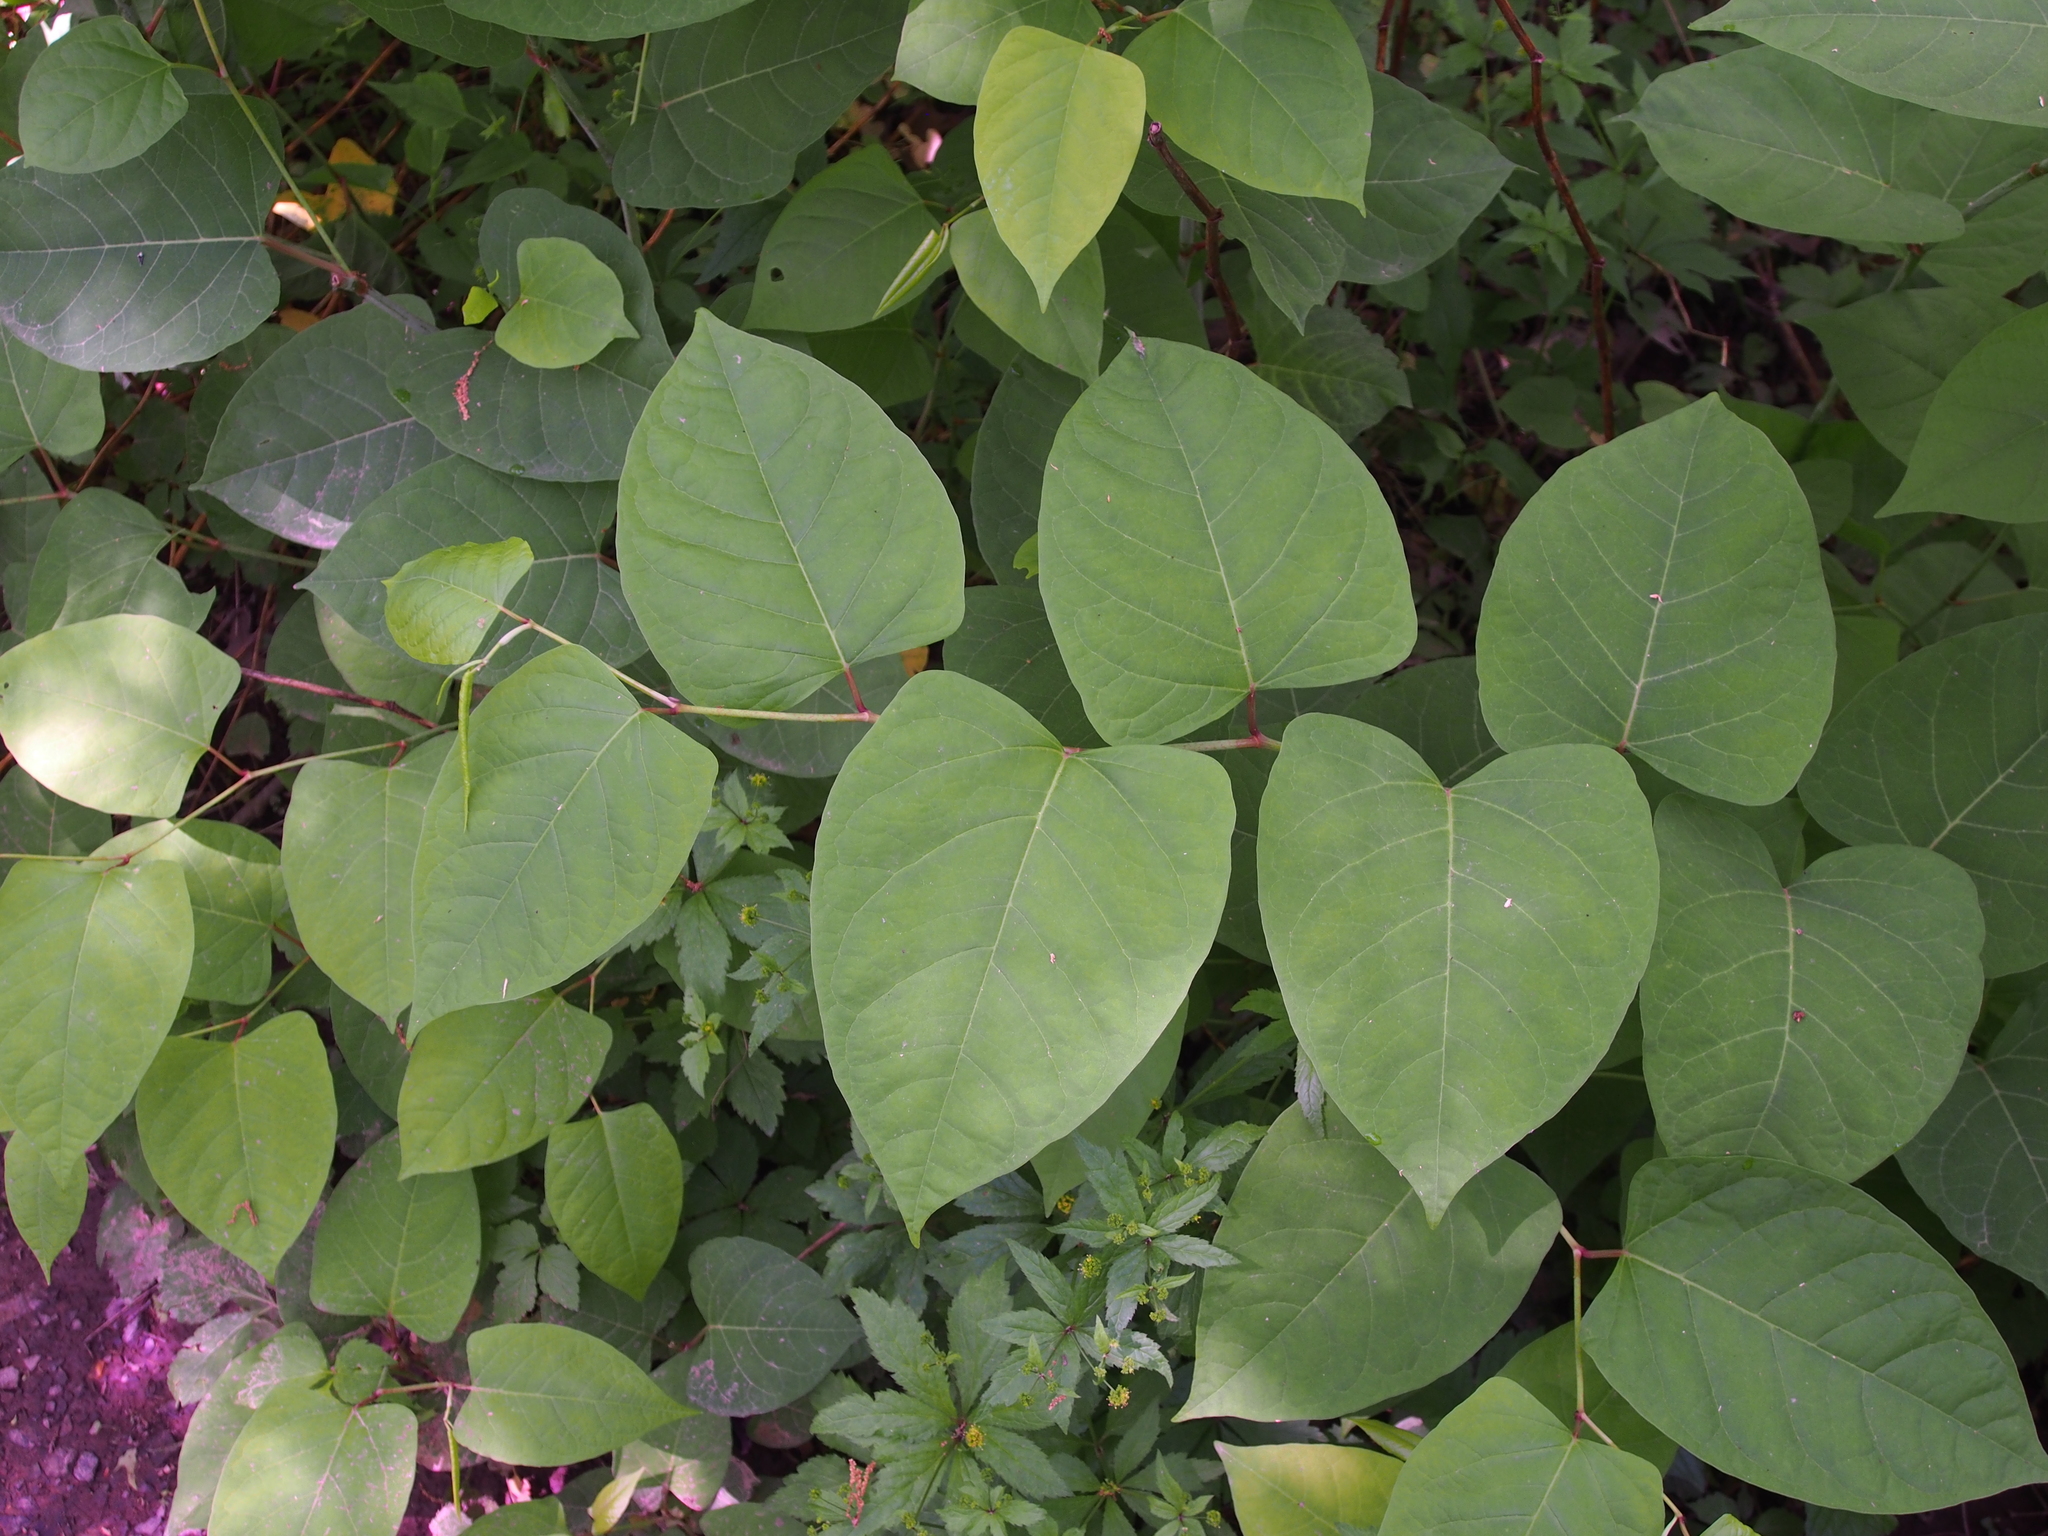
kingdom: Plantae
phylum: Tracheophyta
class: Magnoliopsida
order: Caryophyllales
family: Polygonaceae
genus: Reynoutria
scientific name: Reynoutria japonica
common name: Japanese knotweed
